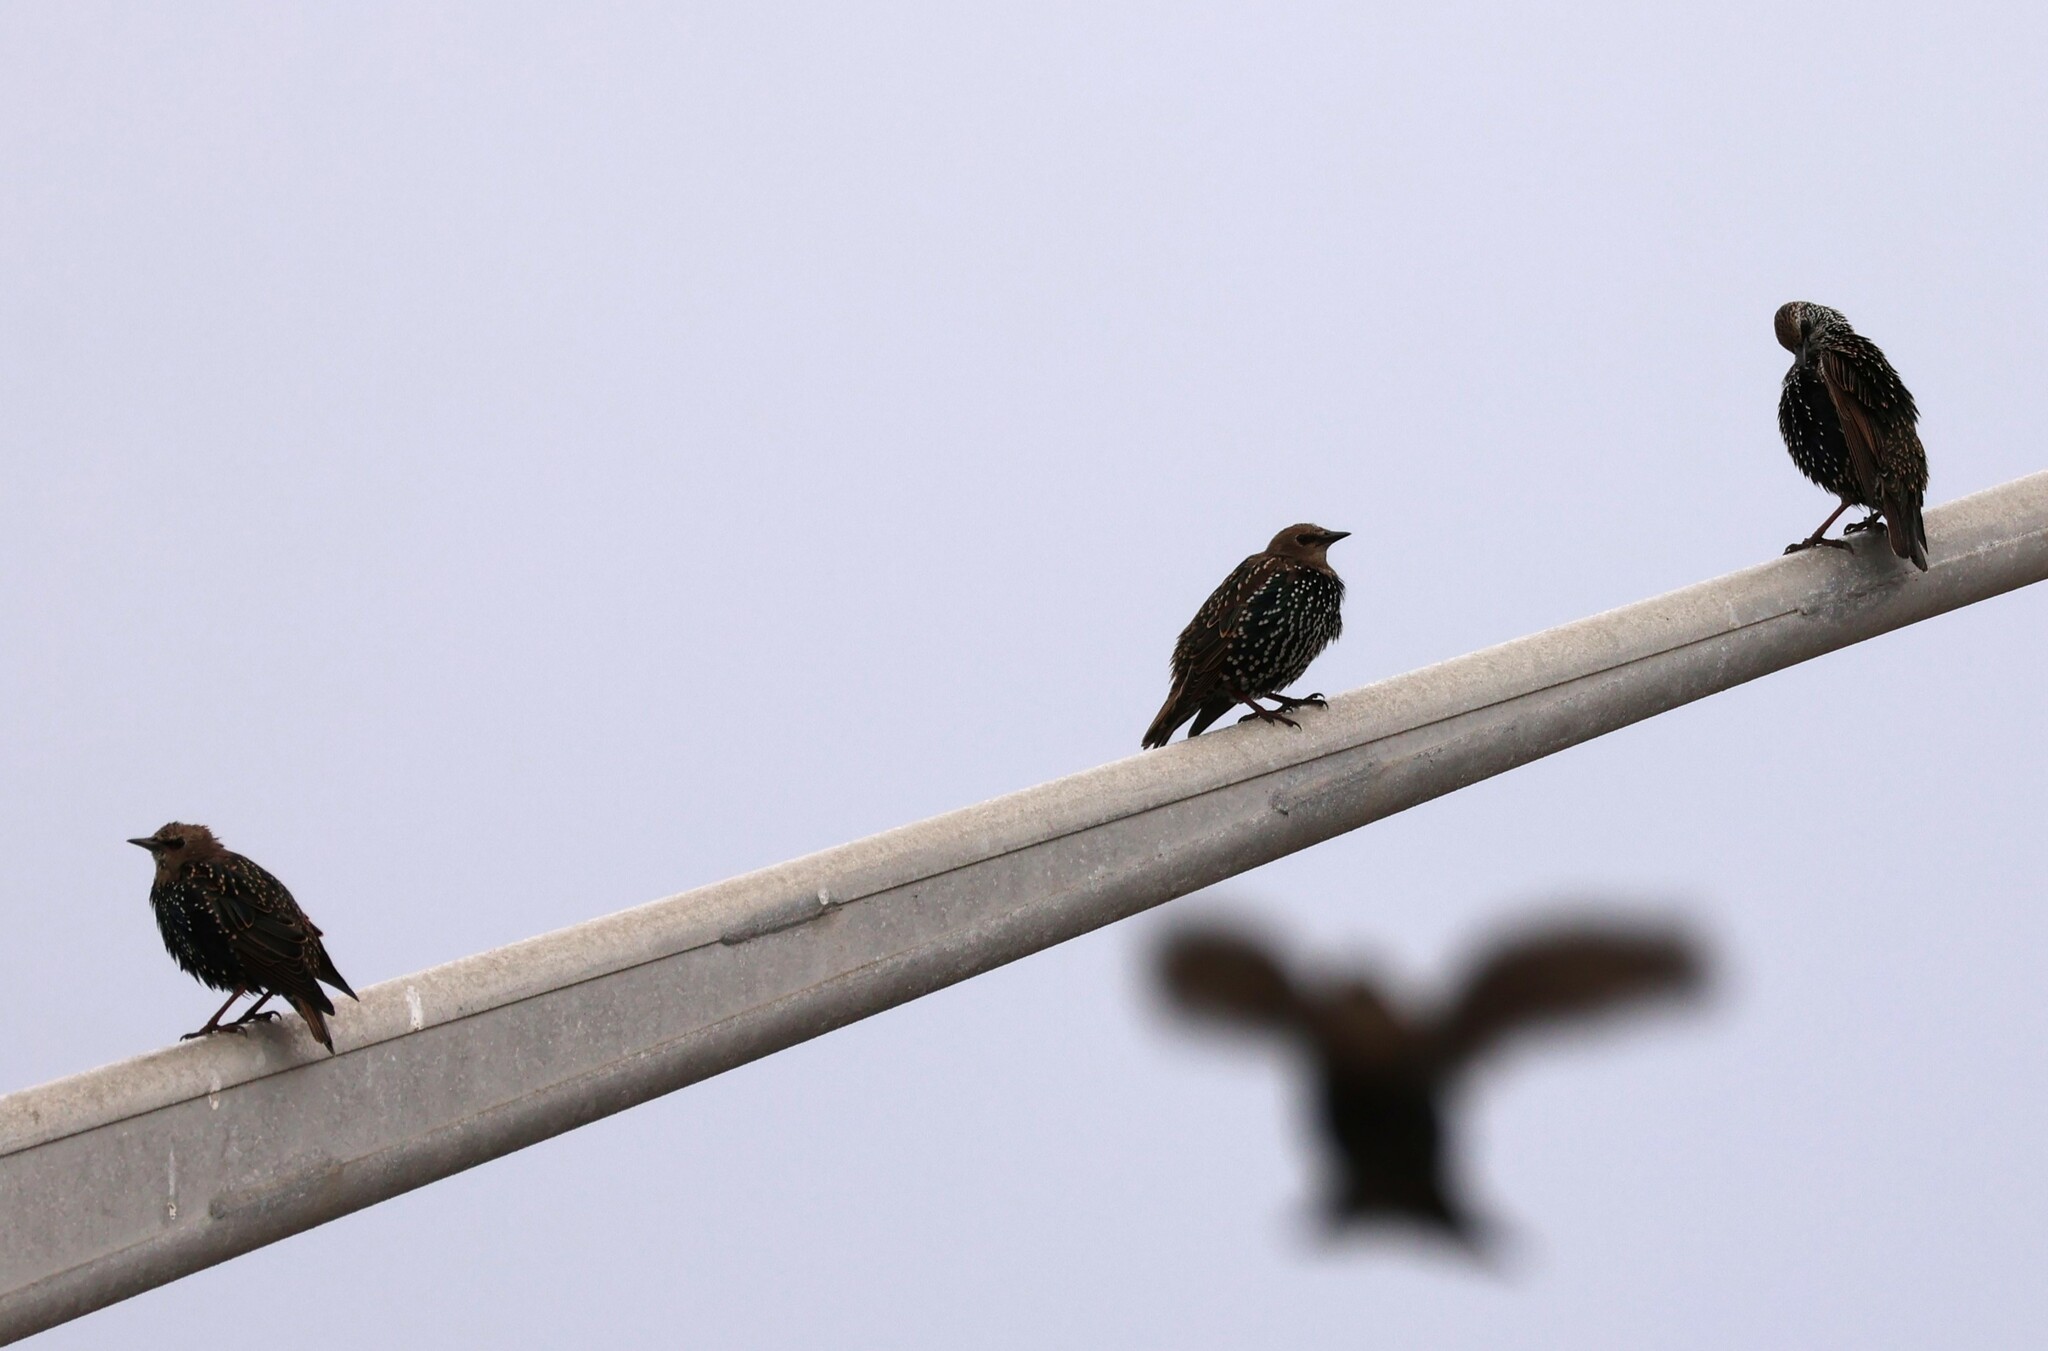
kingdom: Animalia
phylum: Chordata
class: Aves
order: Passeriformes
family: Sturnidae
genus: Sturnus
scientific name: Sturnus vulgaris
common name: Common starling
